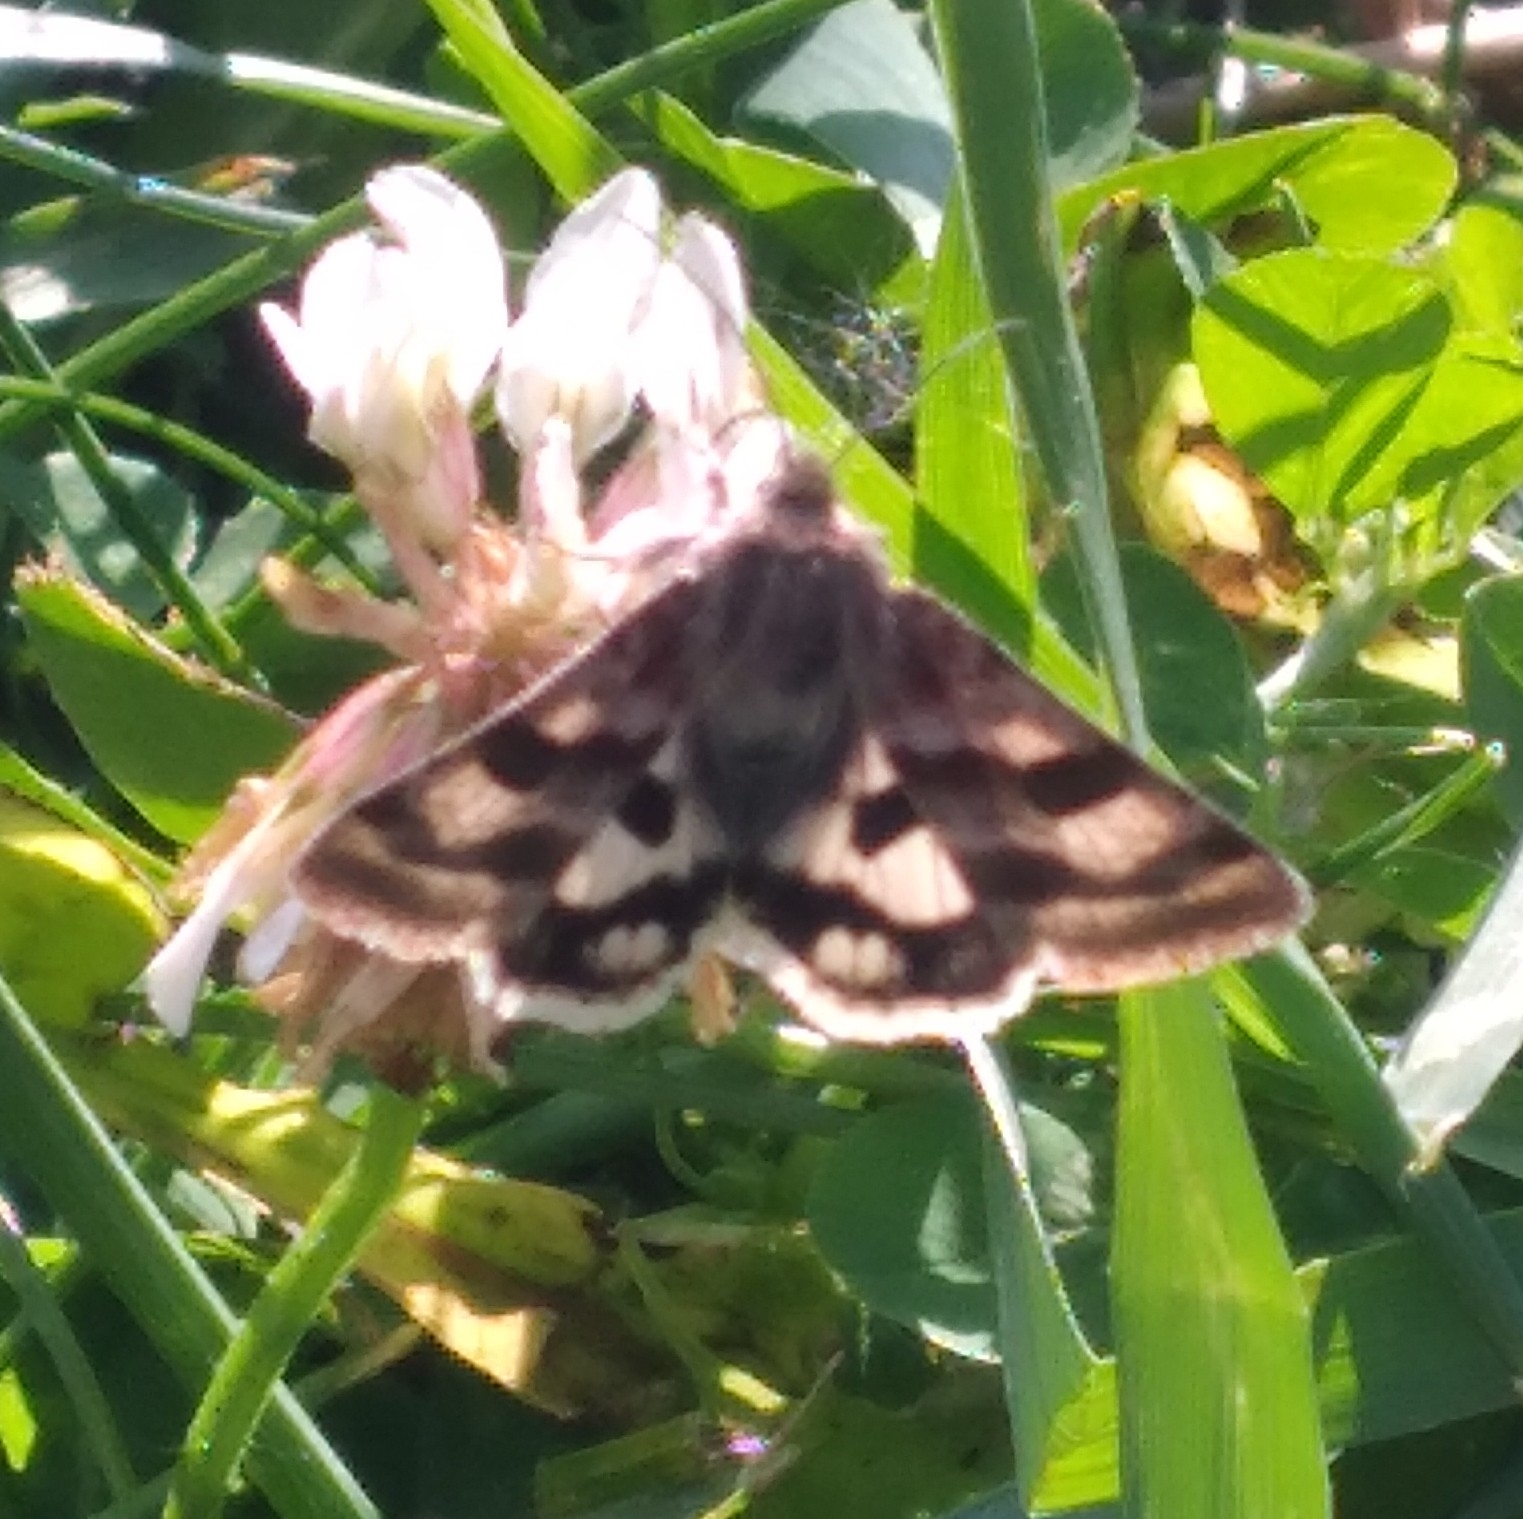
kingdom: Animalia
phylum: Arthropoda
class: Insecta
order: Lepidoptera
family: Noctuidae
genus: Heliothis
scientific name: Heliothis ononis
